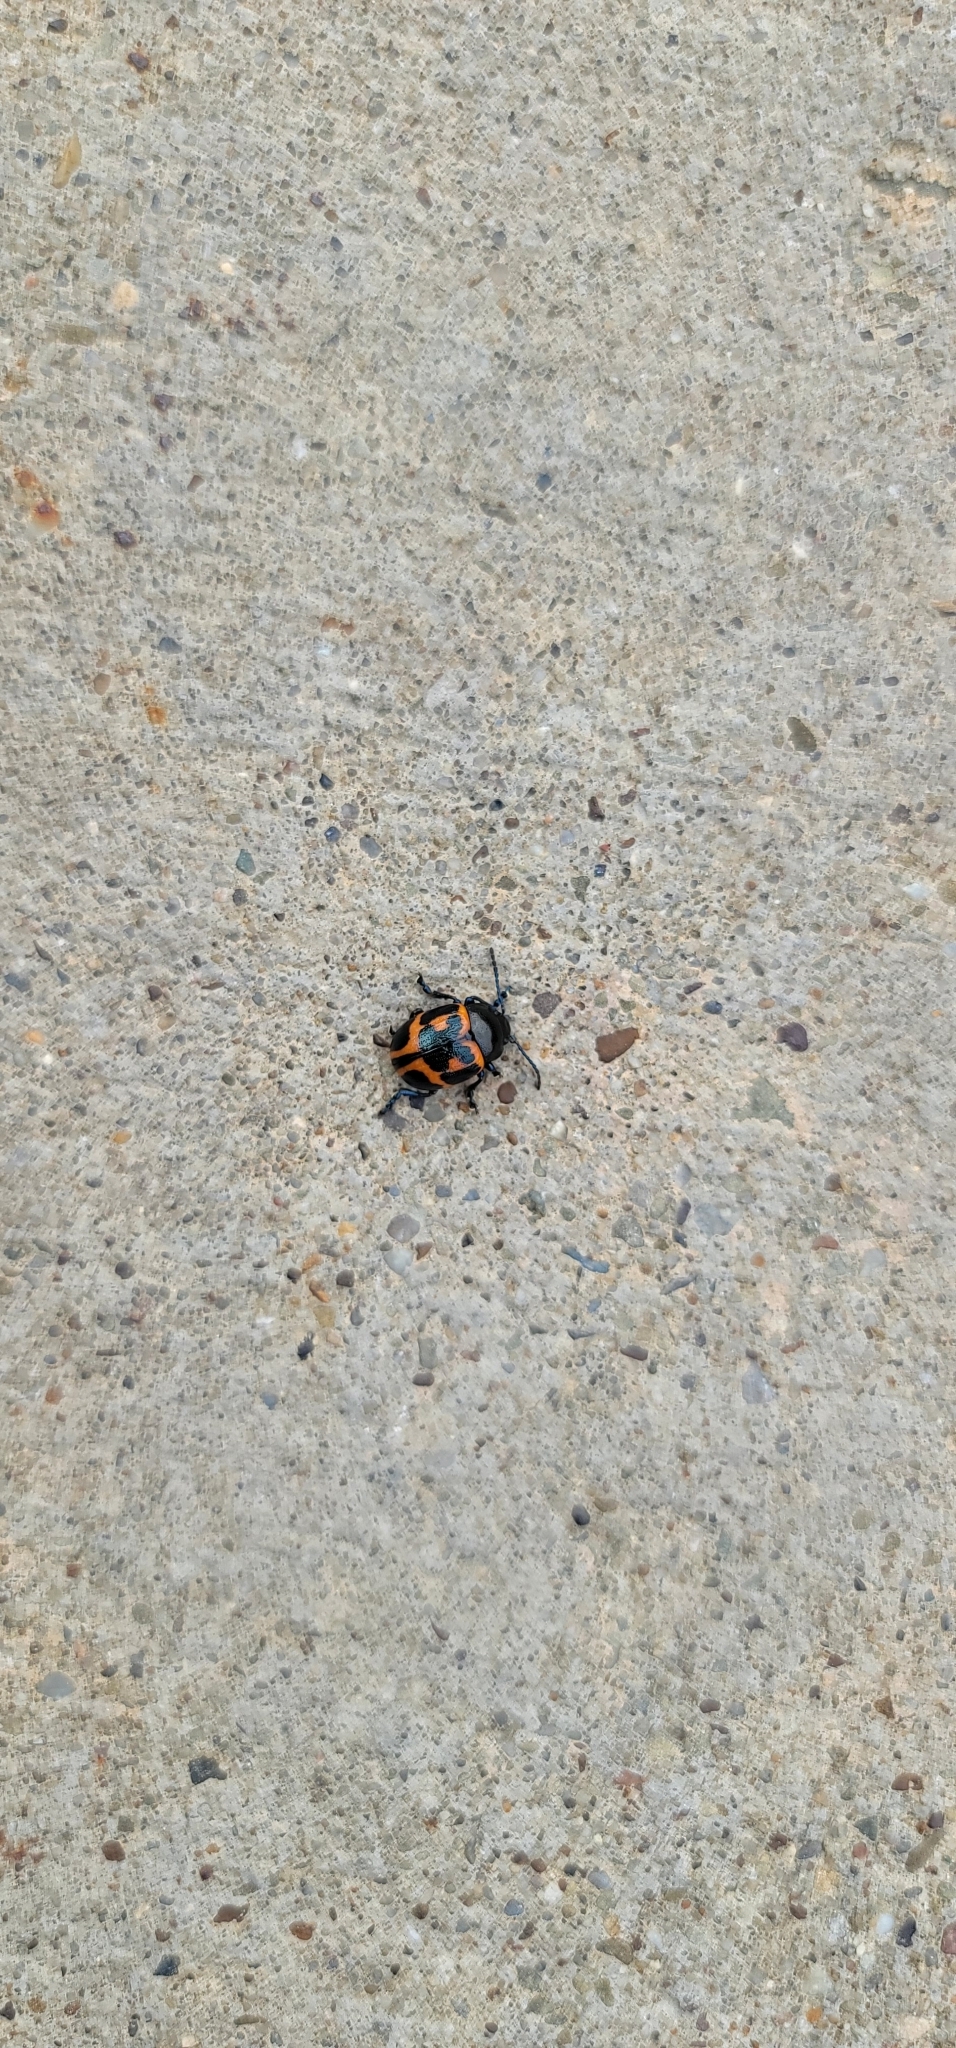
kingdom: Animalia
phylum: Arthropoda
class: Insecta
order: Coleoptera
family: Chrysomelidae
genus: Labidomera
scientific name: Labidomera clivicollis
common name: Swamp milkweed leaf beetle
